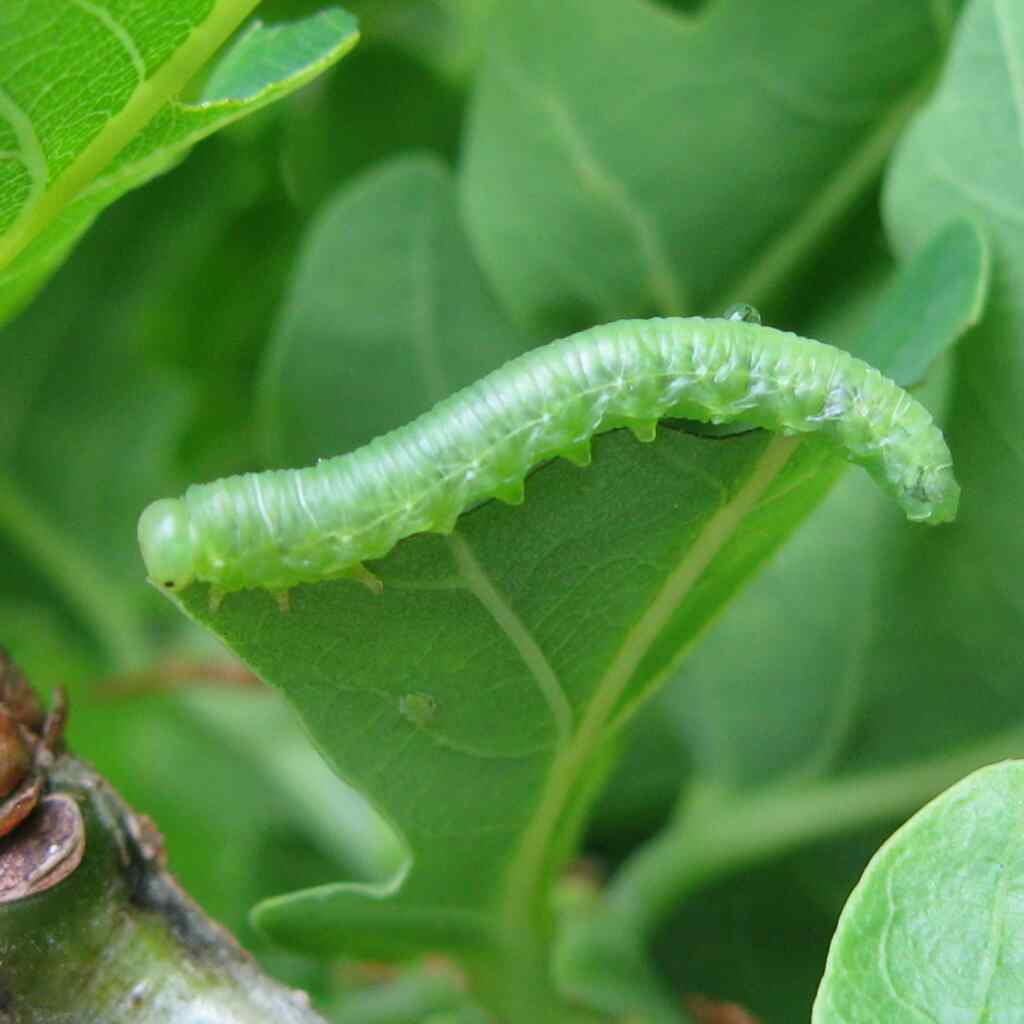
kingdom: Animalia
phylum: Arthropoda
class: Insecta
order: Hymenoptera
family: Tenthredinidae
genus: Mesoneura
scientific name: Mesoneura opaca
